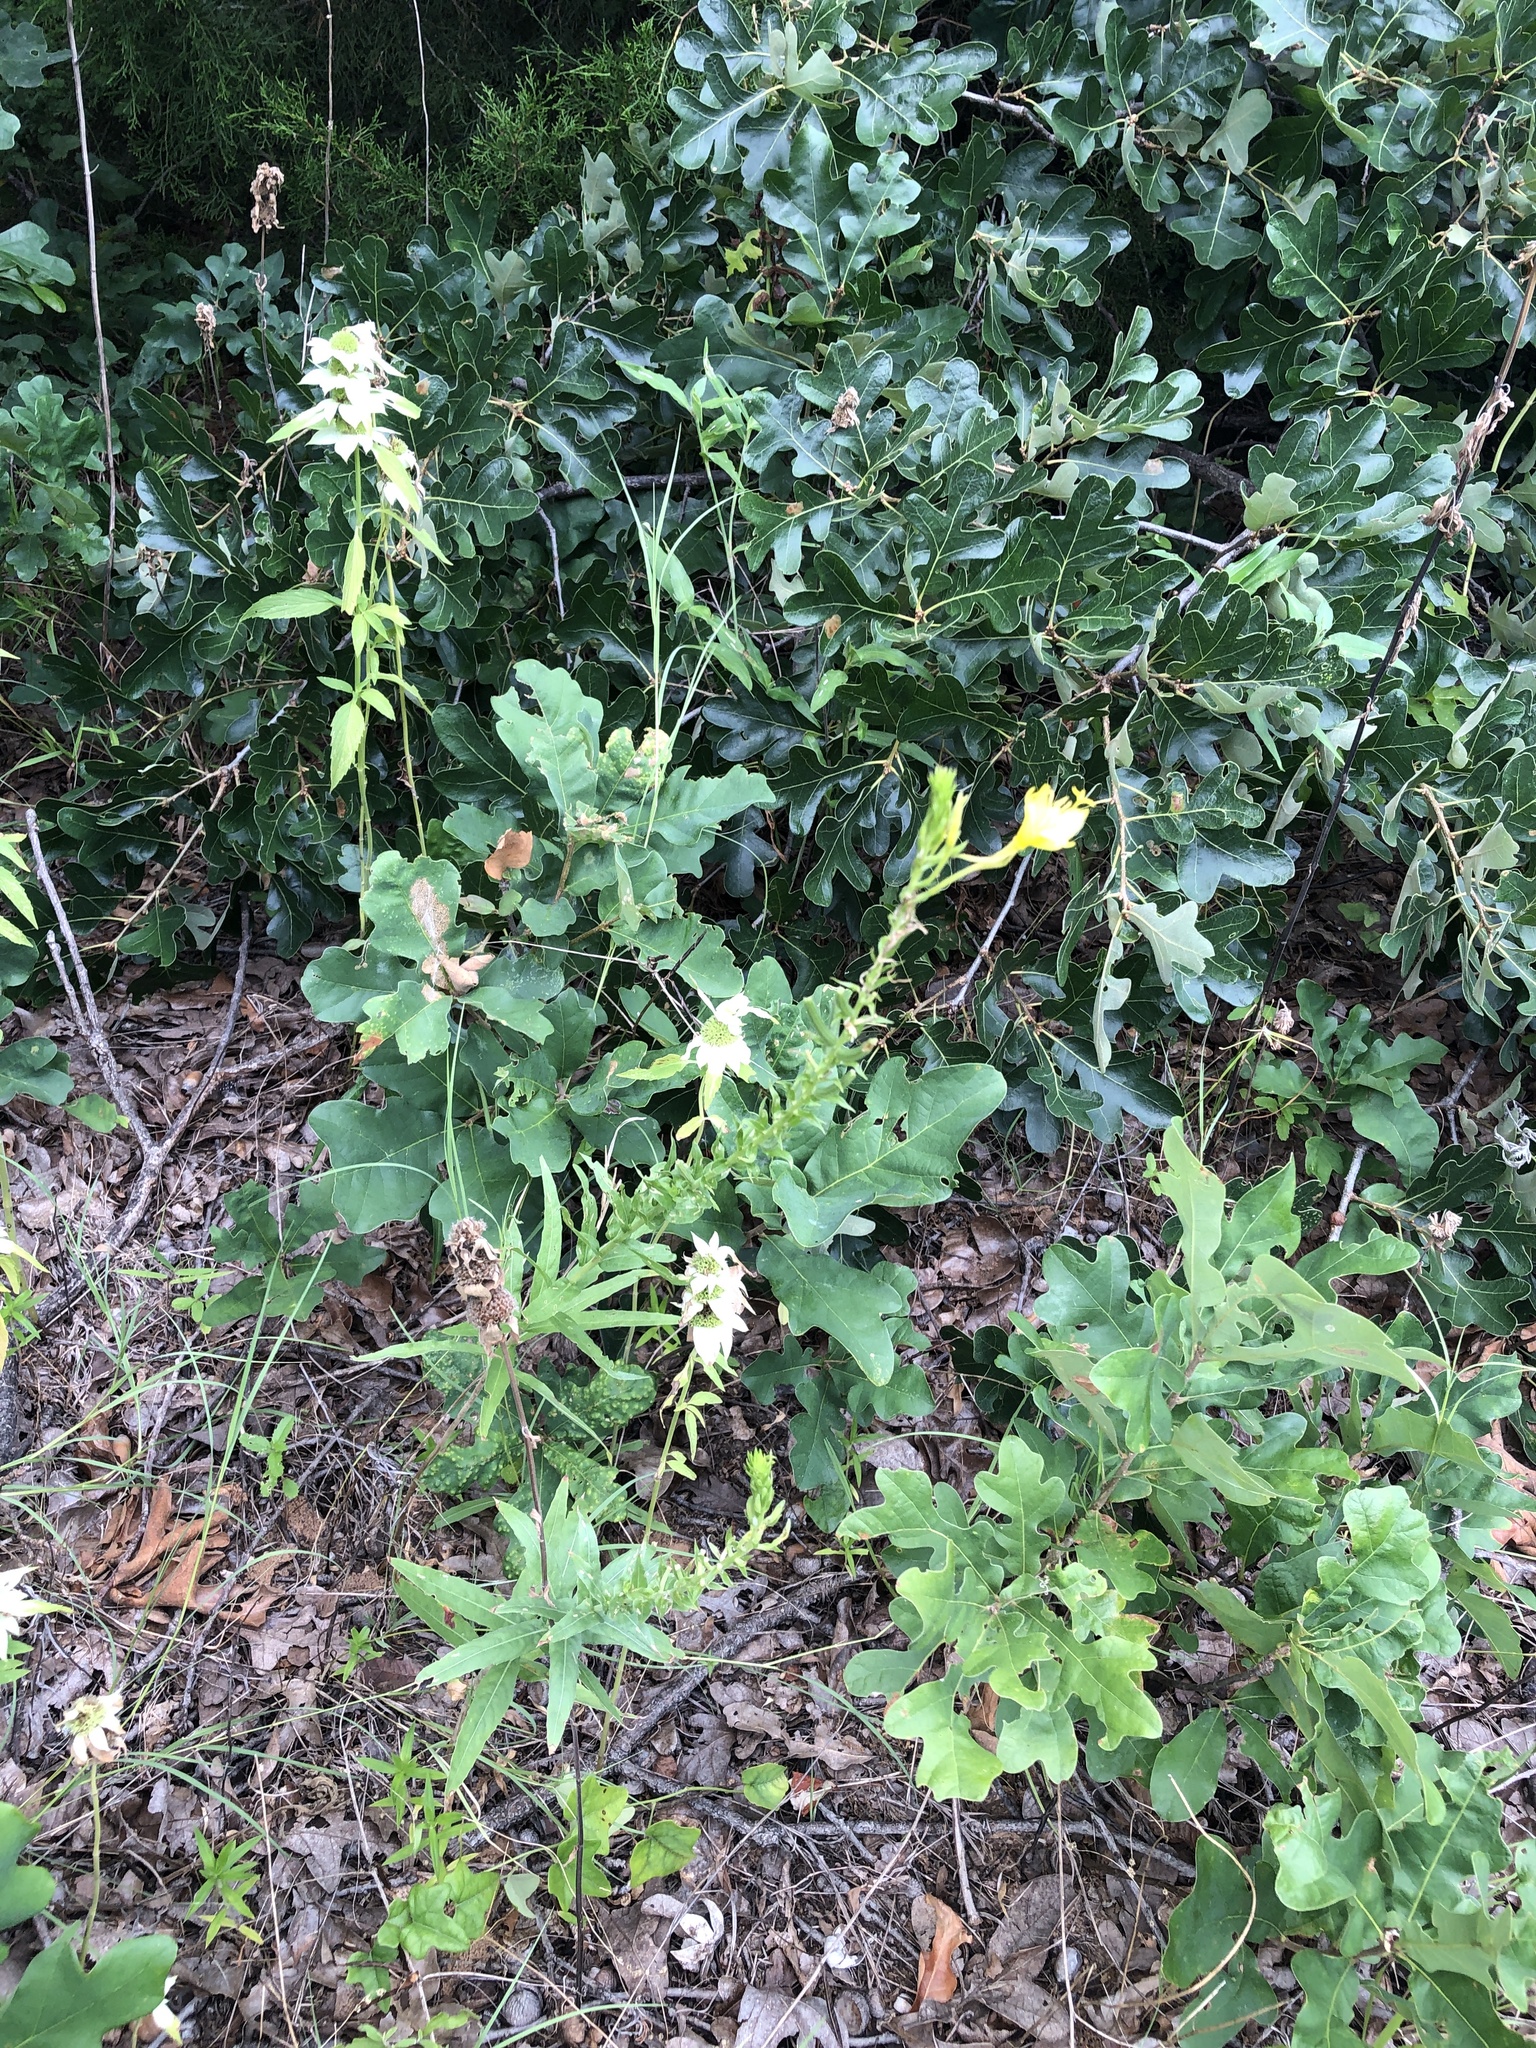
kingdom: Plantae
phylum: Tracheophyta
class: Magnoliopsida
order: Myrtales
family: Onagraceae
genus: Oenothera
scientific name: Oenothera rhombipetala
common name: Four-points evening-primrose
